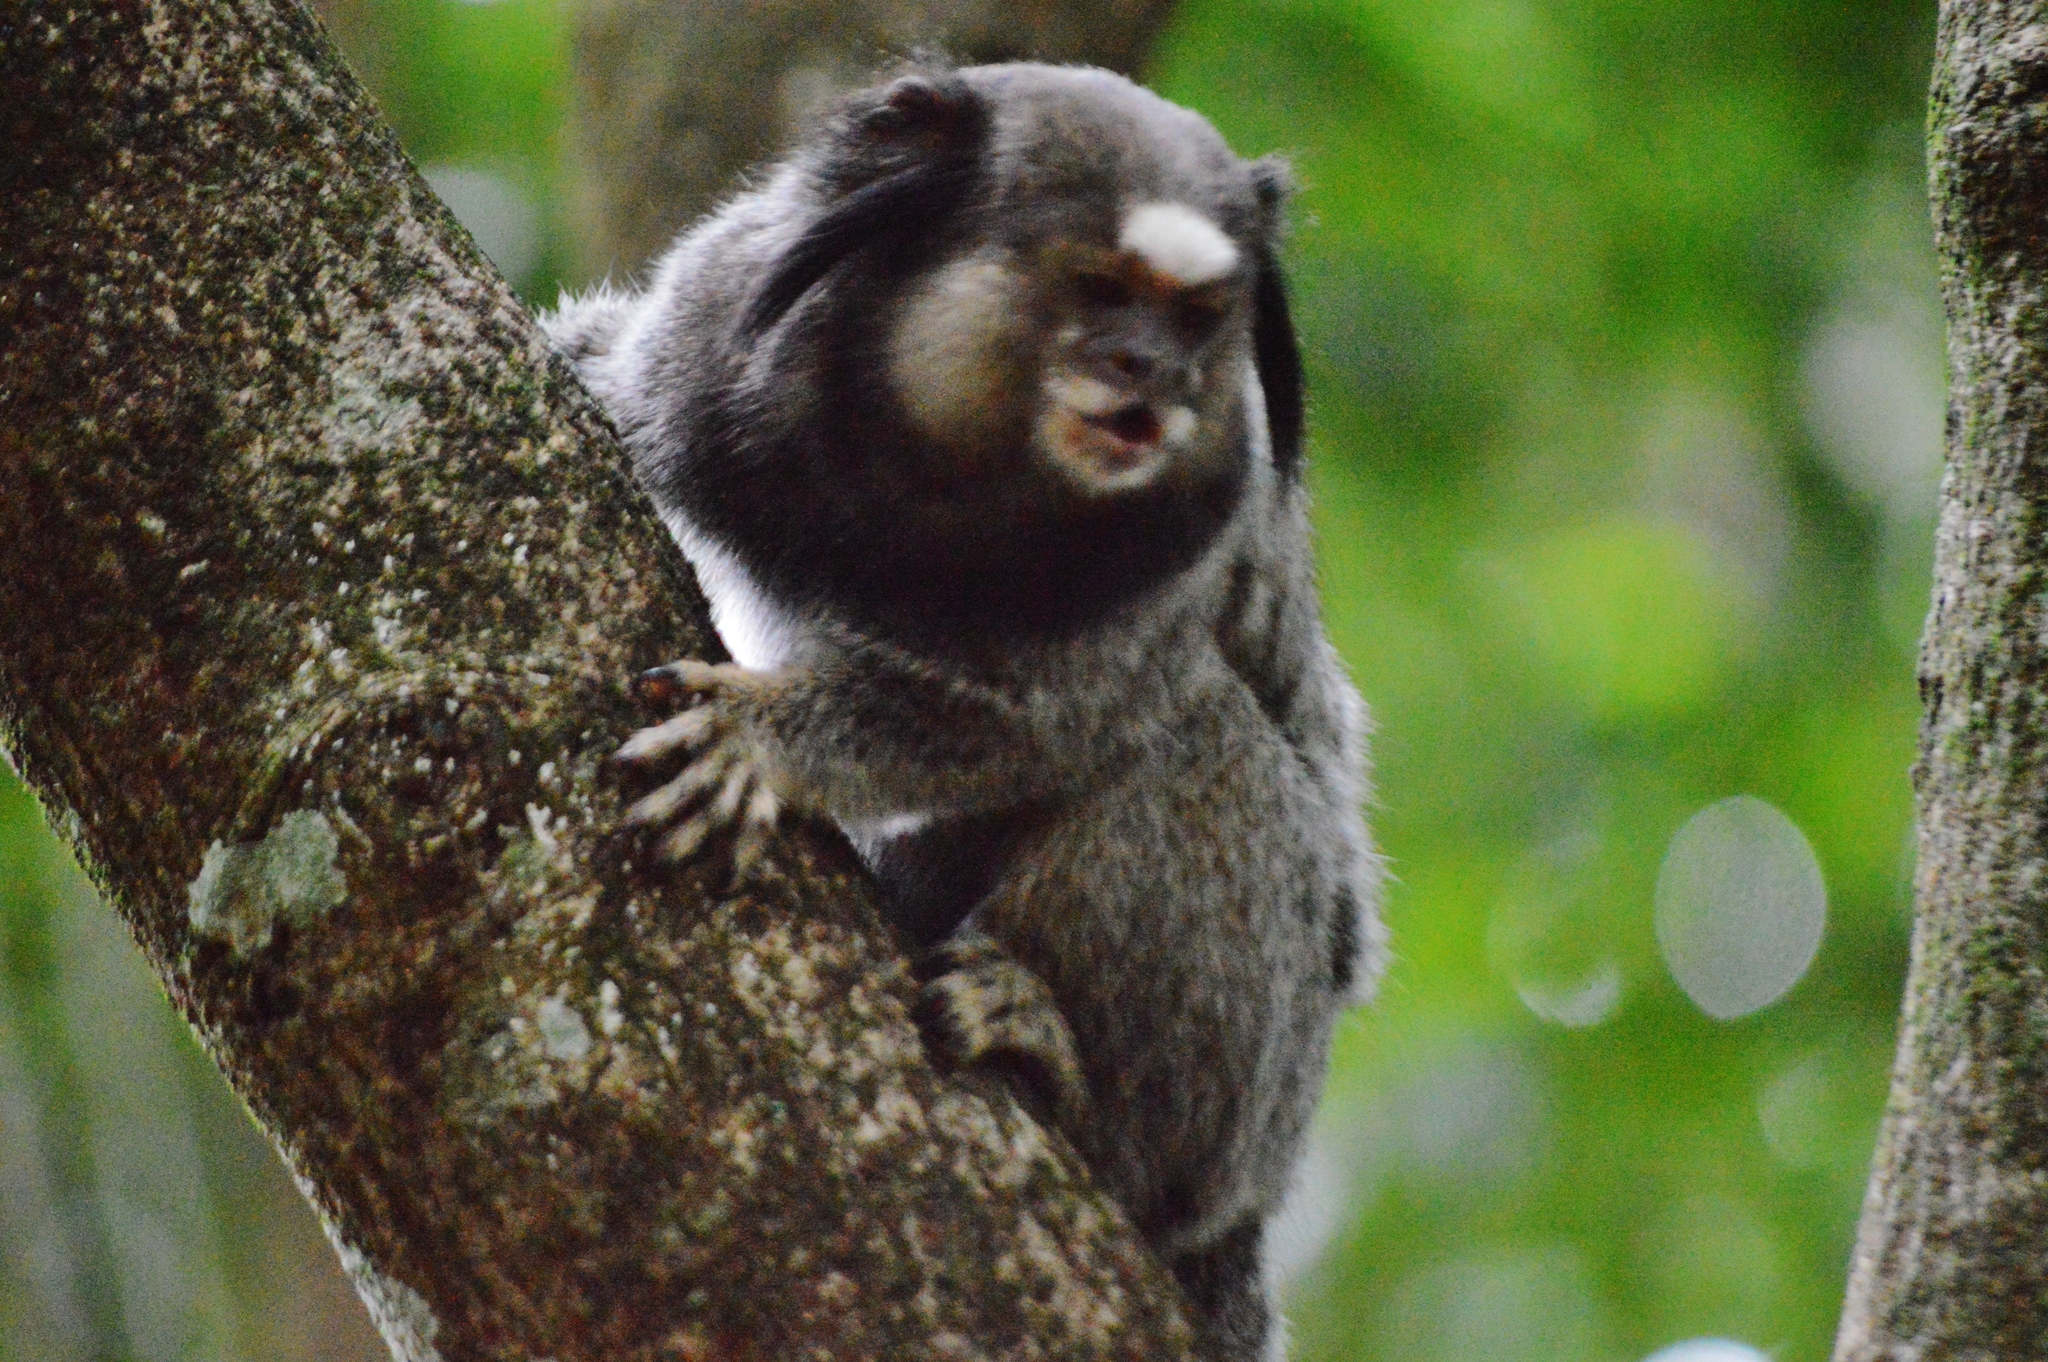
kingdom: Animalia
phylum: Chordata
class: Mammalia
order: Primates
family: Callitrichidae
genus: Callithrix
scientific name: Callithrix penicillata
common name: Black-tufted marmoset
